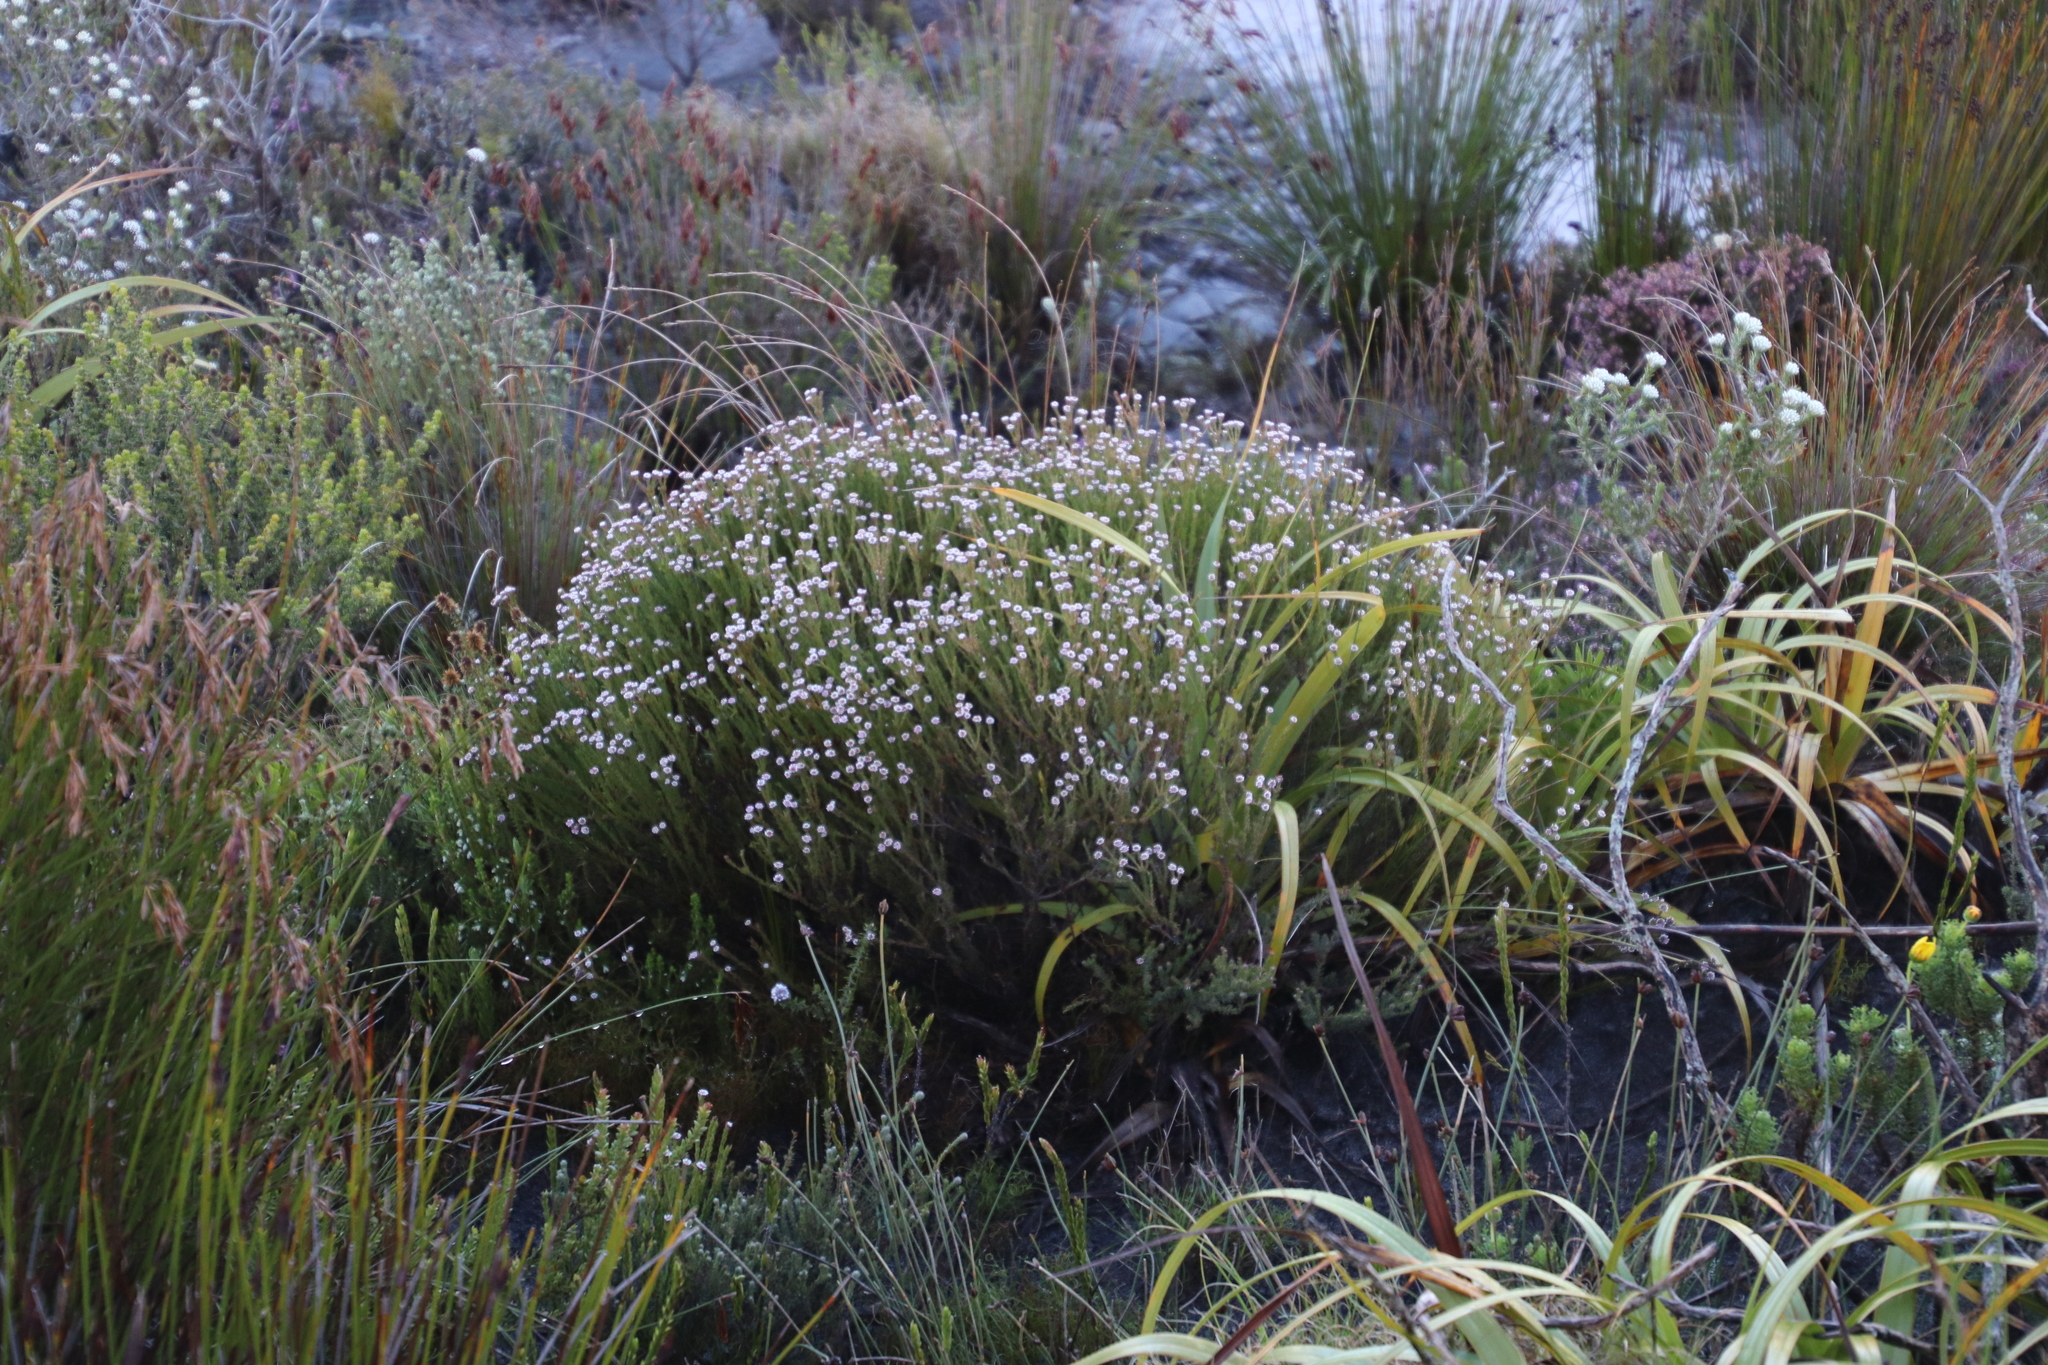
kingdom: Plantae
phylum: Tracheophyta
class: Magnoliopsida
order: Bruniales
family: Bruniaceae
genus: Staavia
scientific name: Staavia radiata
